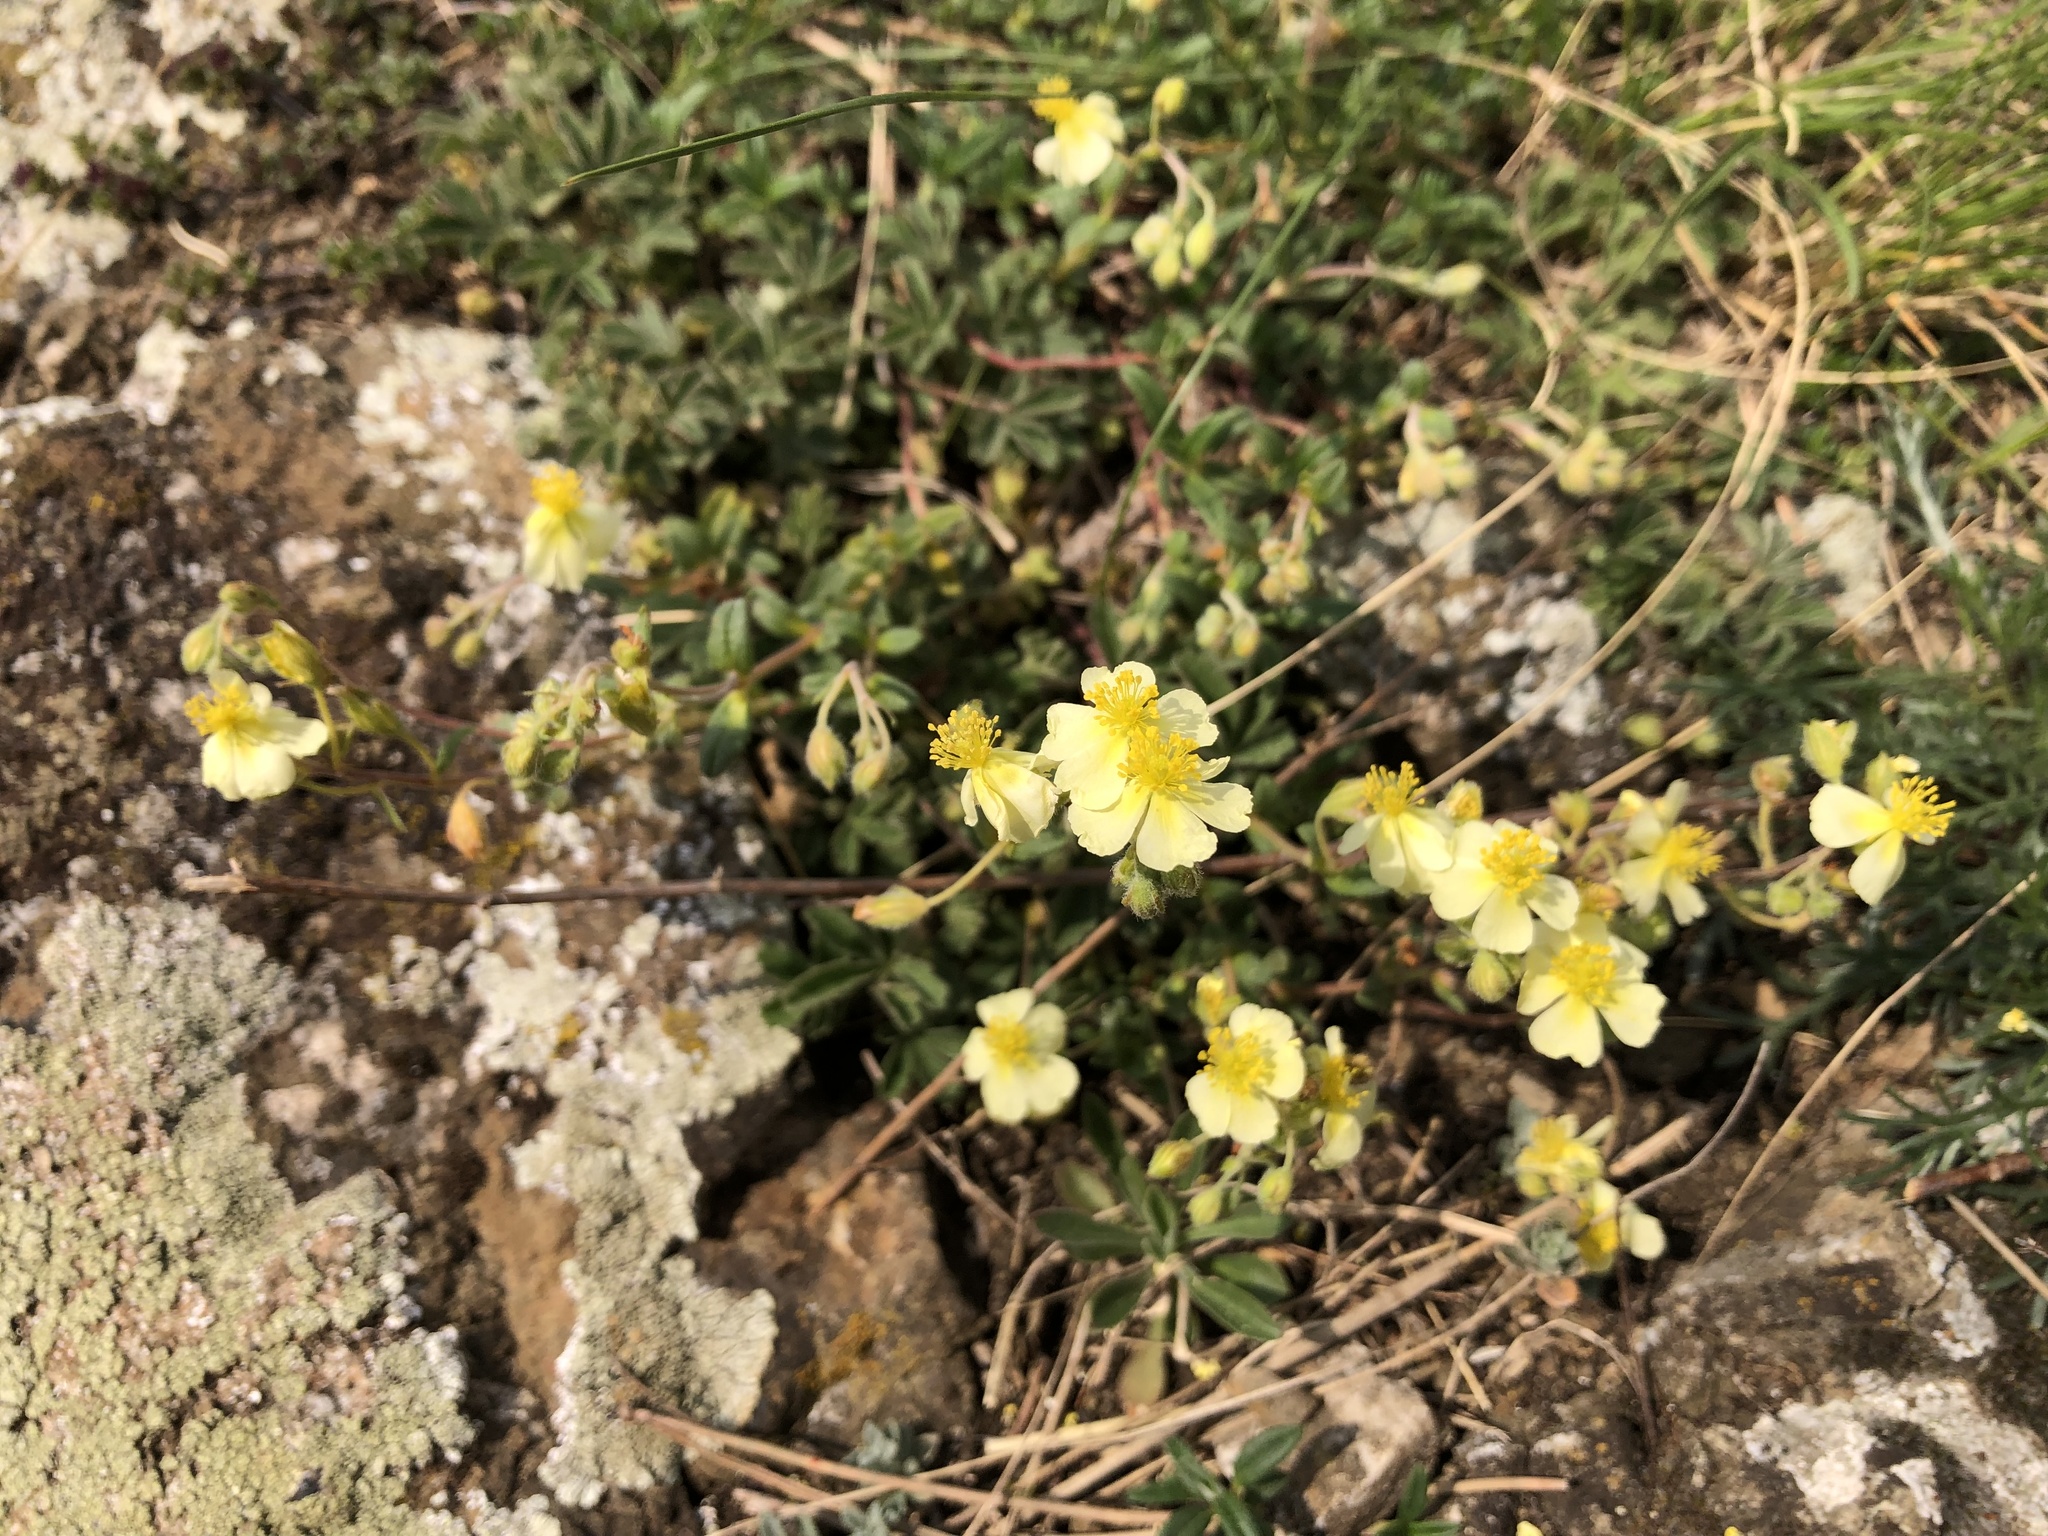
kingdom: Plantae
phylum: Tracheophyta
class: Magnoliopsida
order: Malvales
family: Cistaceae
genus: Helianthemum
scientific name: Helianthemum canum
